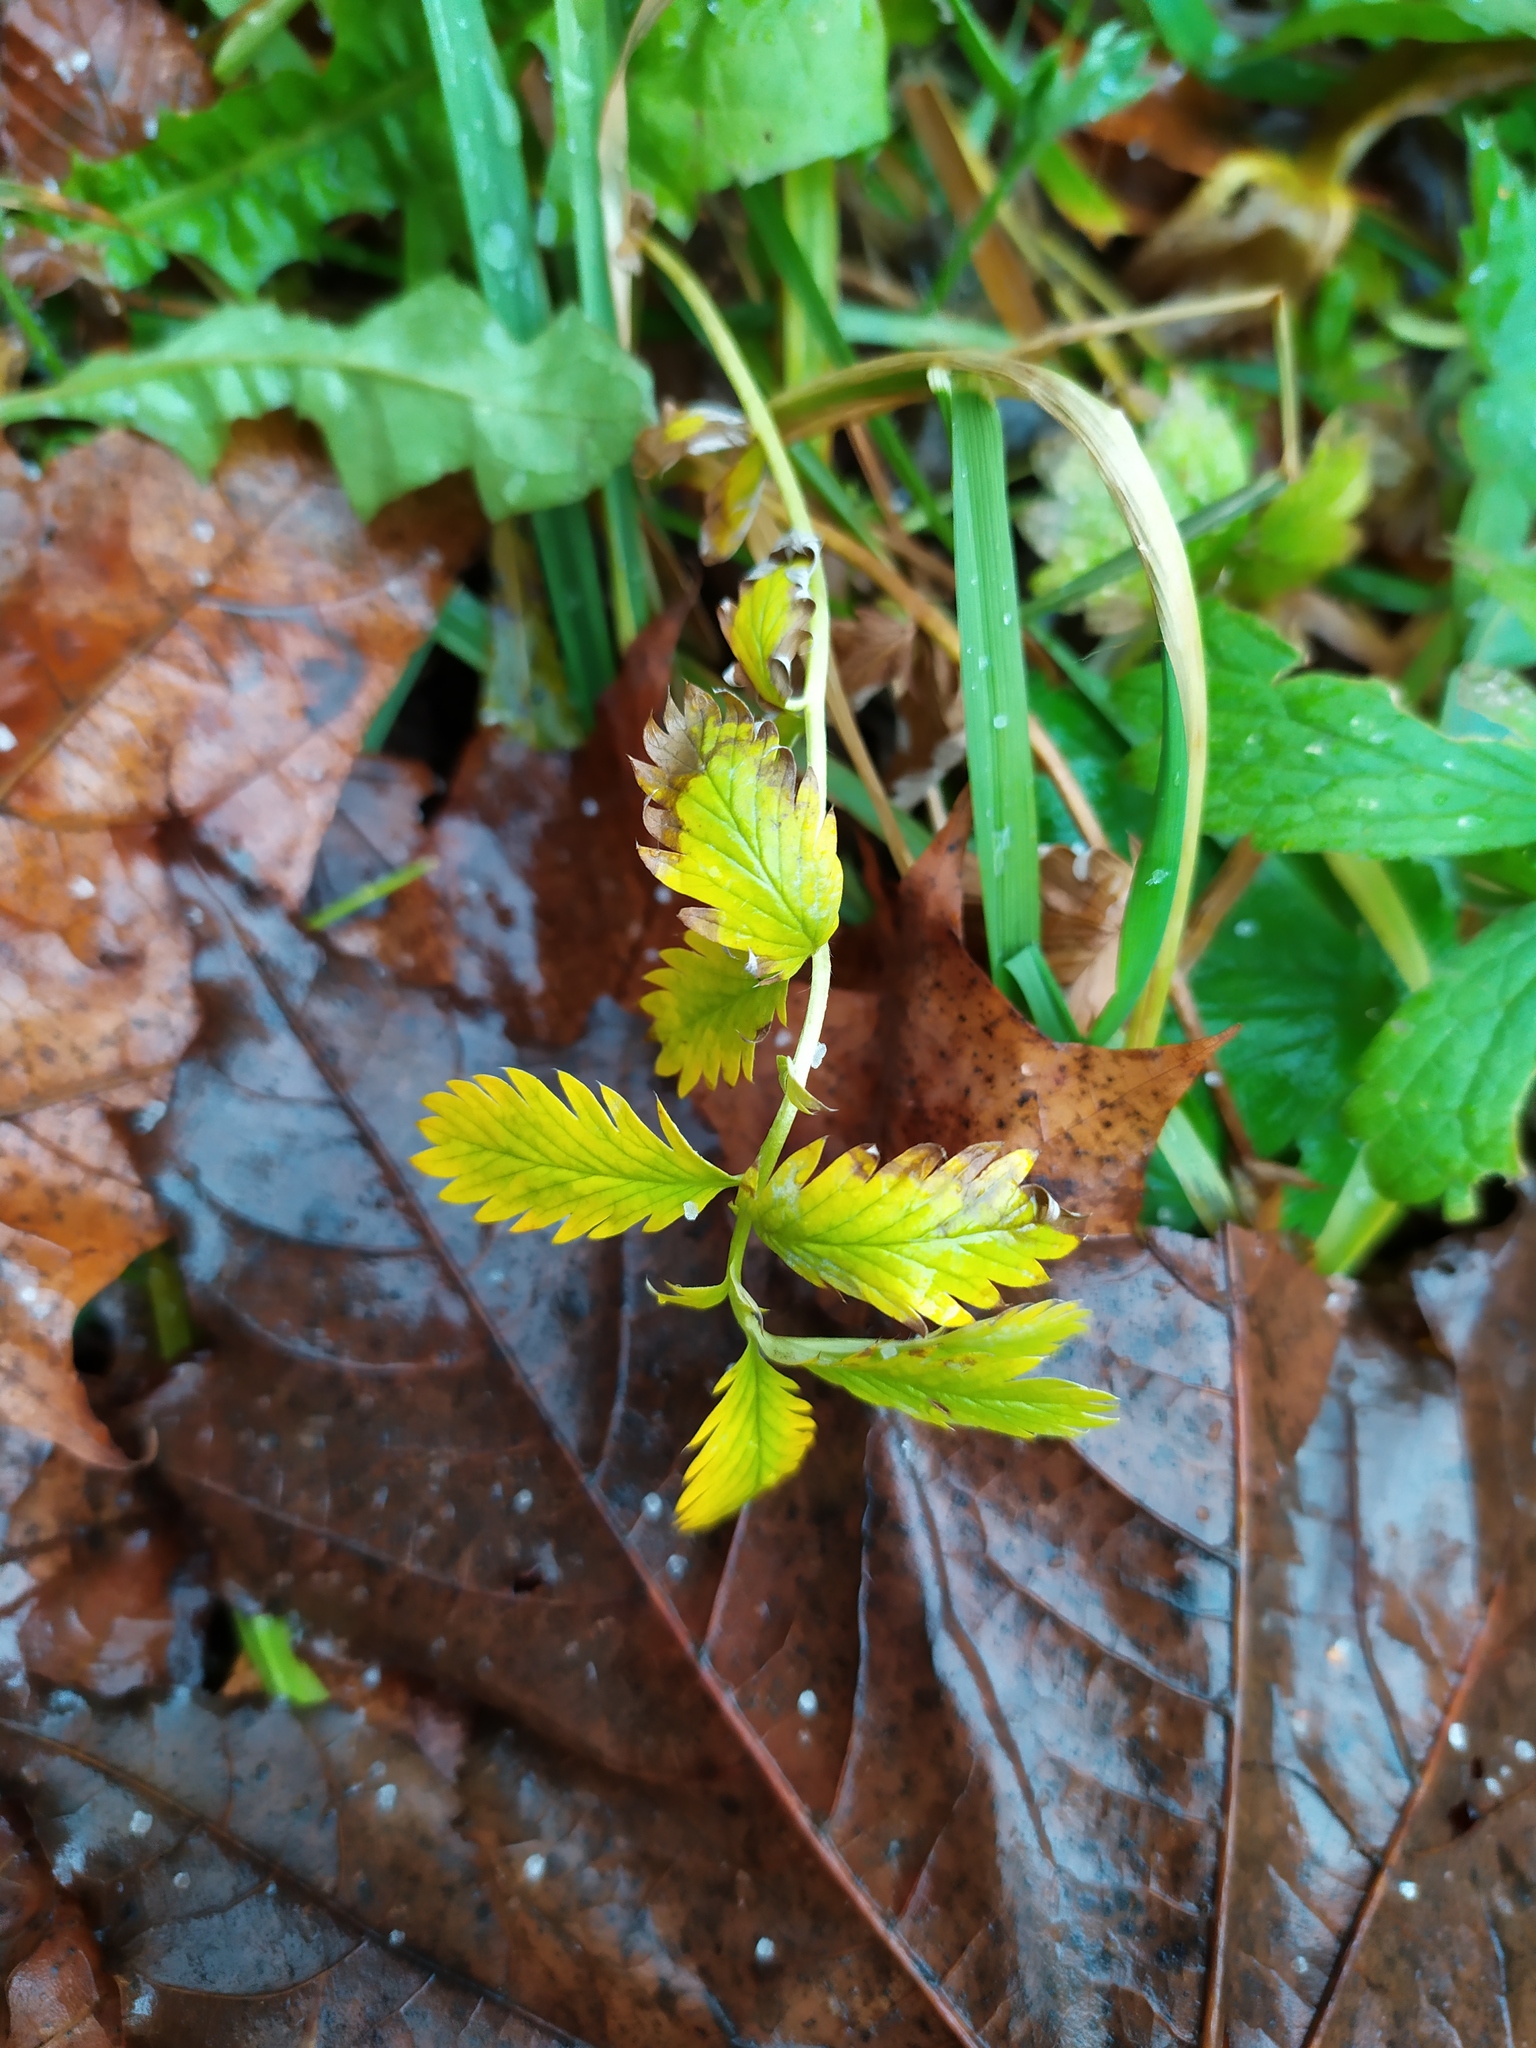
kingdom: Plantae
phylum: Tracheophyta
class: Magnoliopsida
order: Rosales
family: Rosaceae
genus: Argentina
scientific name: Argentina anserina
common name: Common silverweed
